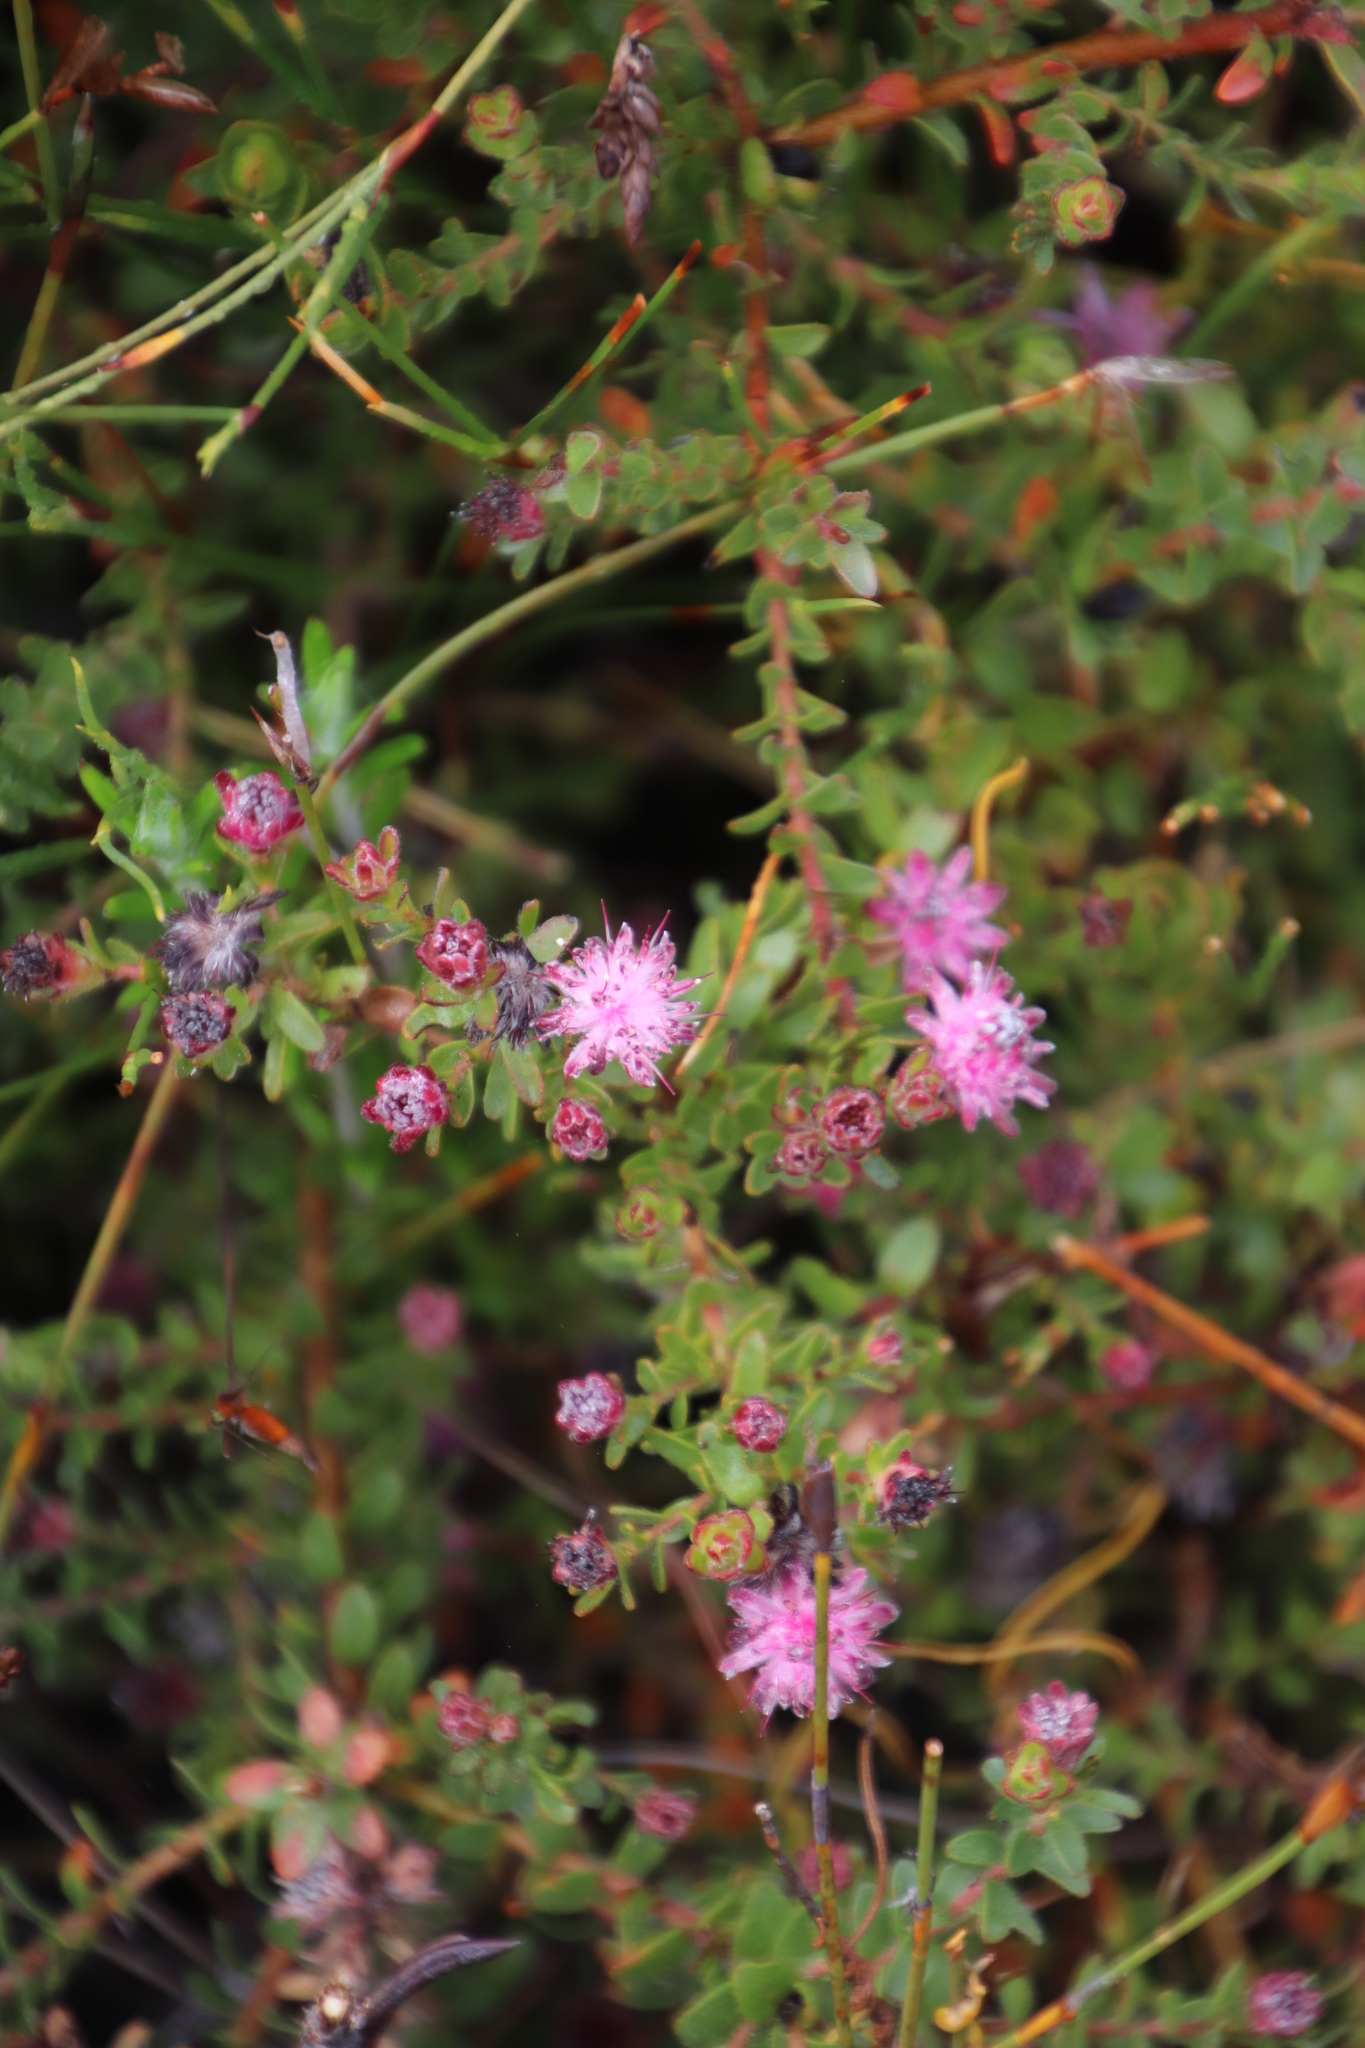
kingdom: Plantae
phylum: Tracheophyta
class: Magnoliopsida
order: Proteales
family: Proteaceae
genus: Diastella
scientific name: Diastella divaricata
